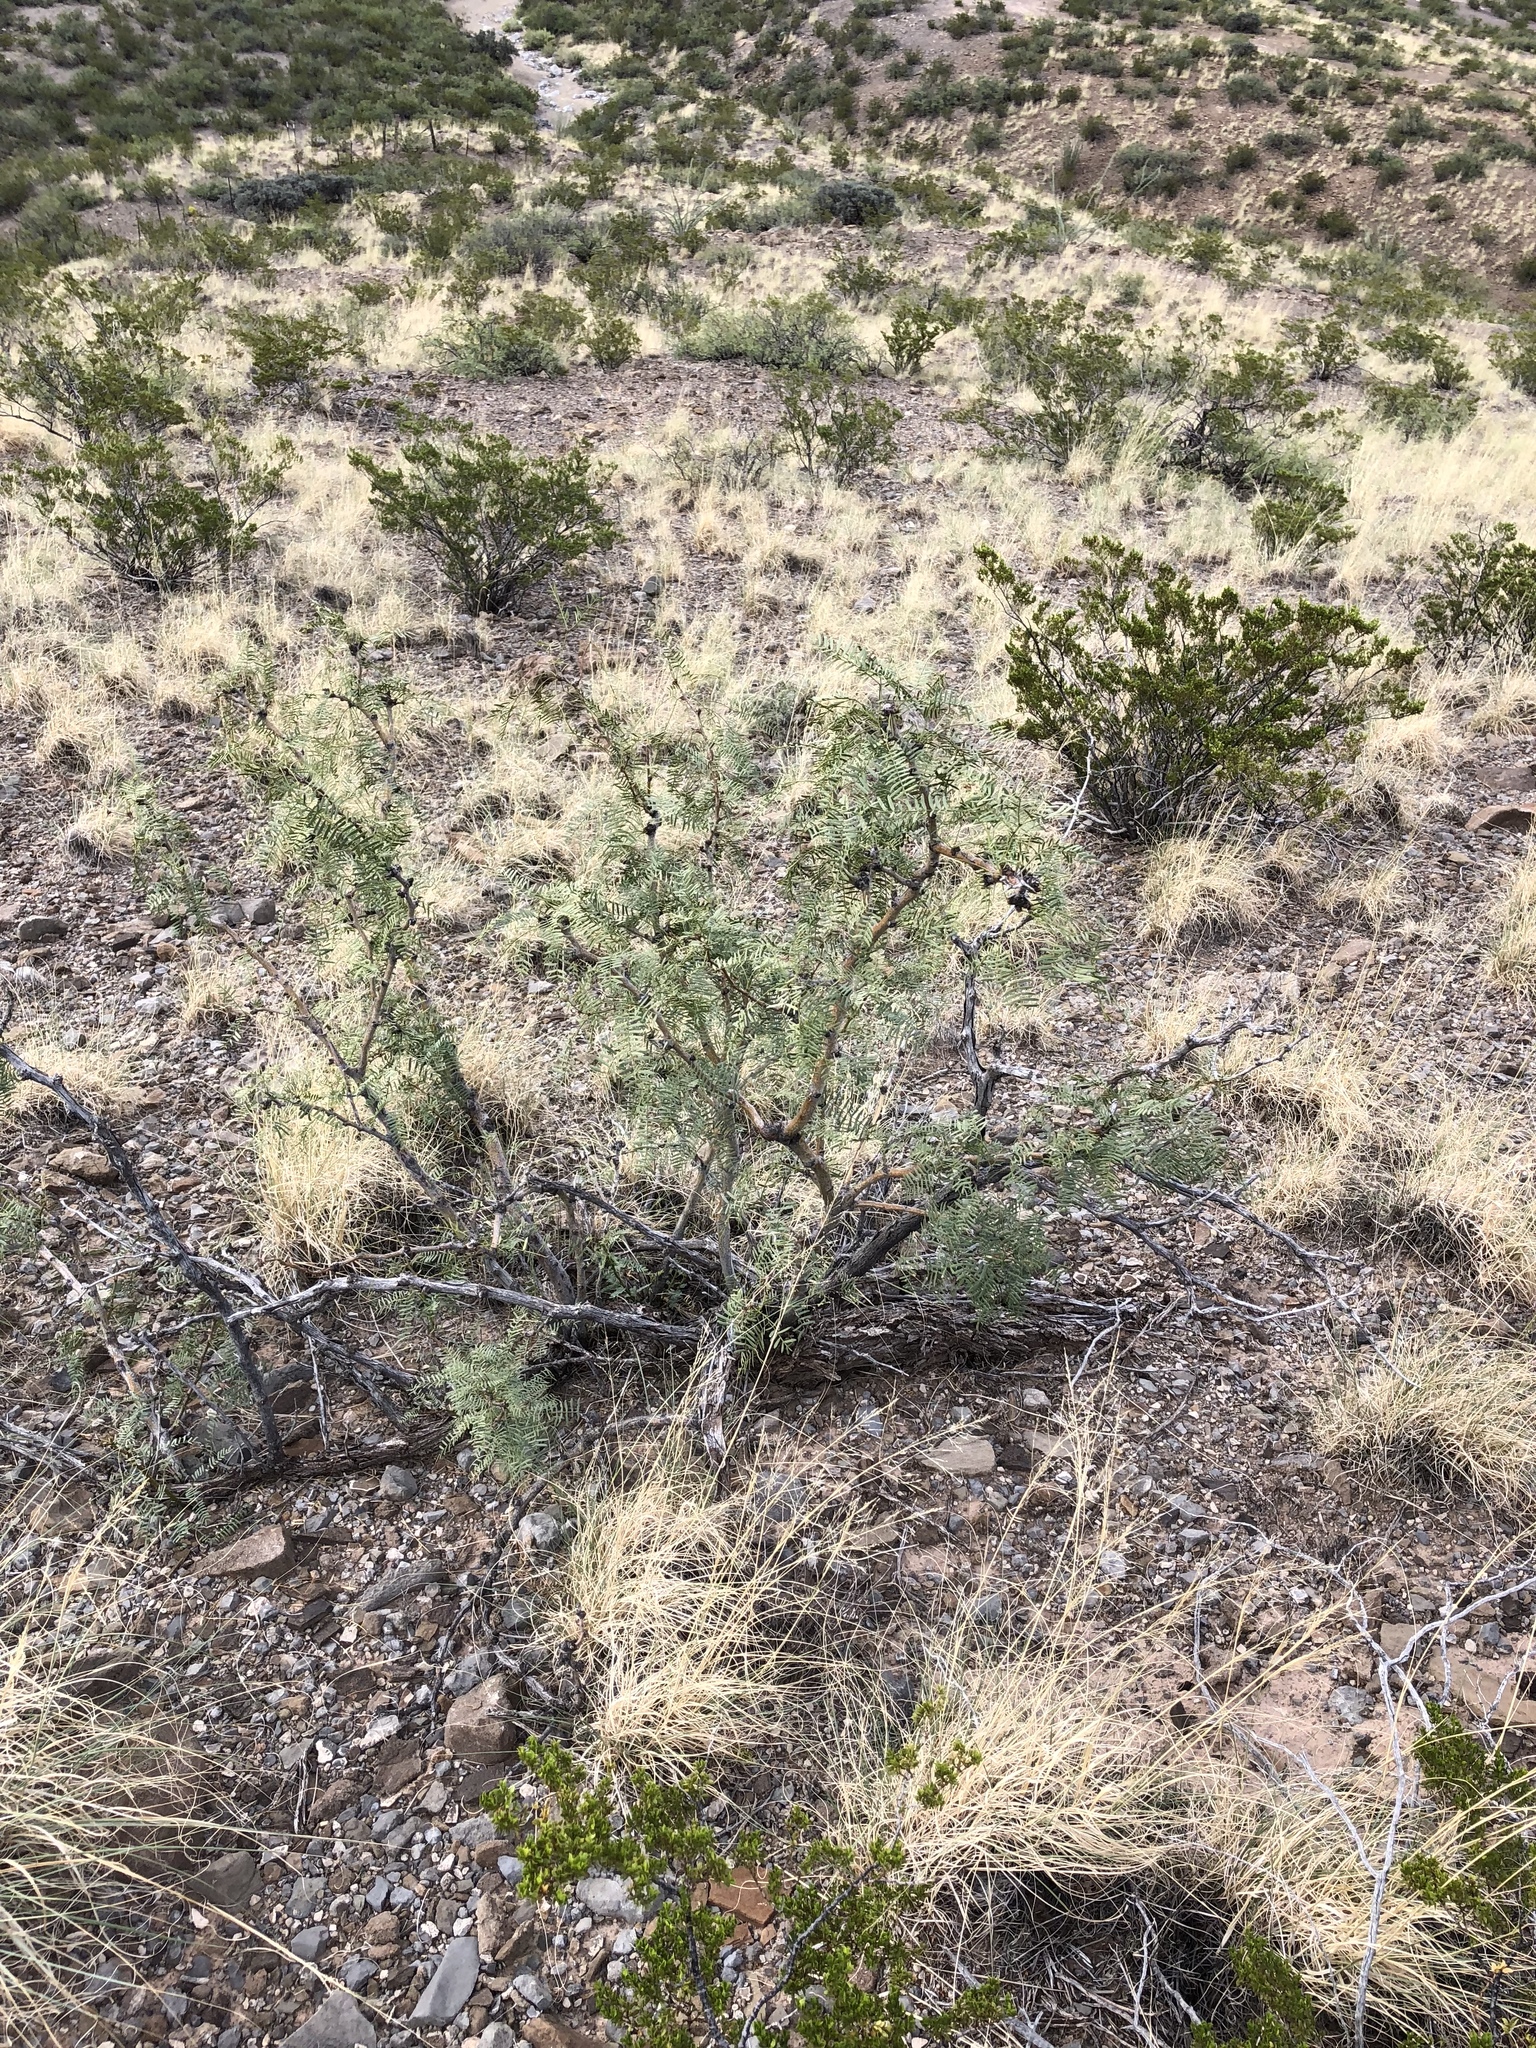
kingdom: Plantae
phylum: Tracheophyta
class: Magnoliopsida
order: Fabales
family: Fabaceae
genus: Prosopis
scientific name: Prosopis glandulosa
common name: Honey mesquite
